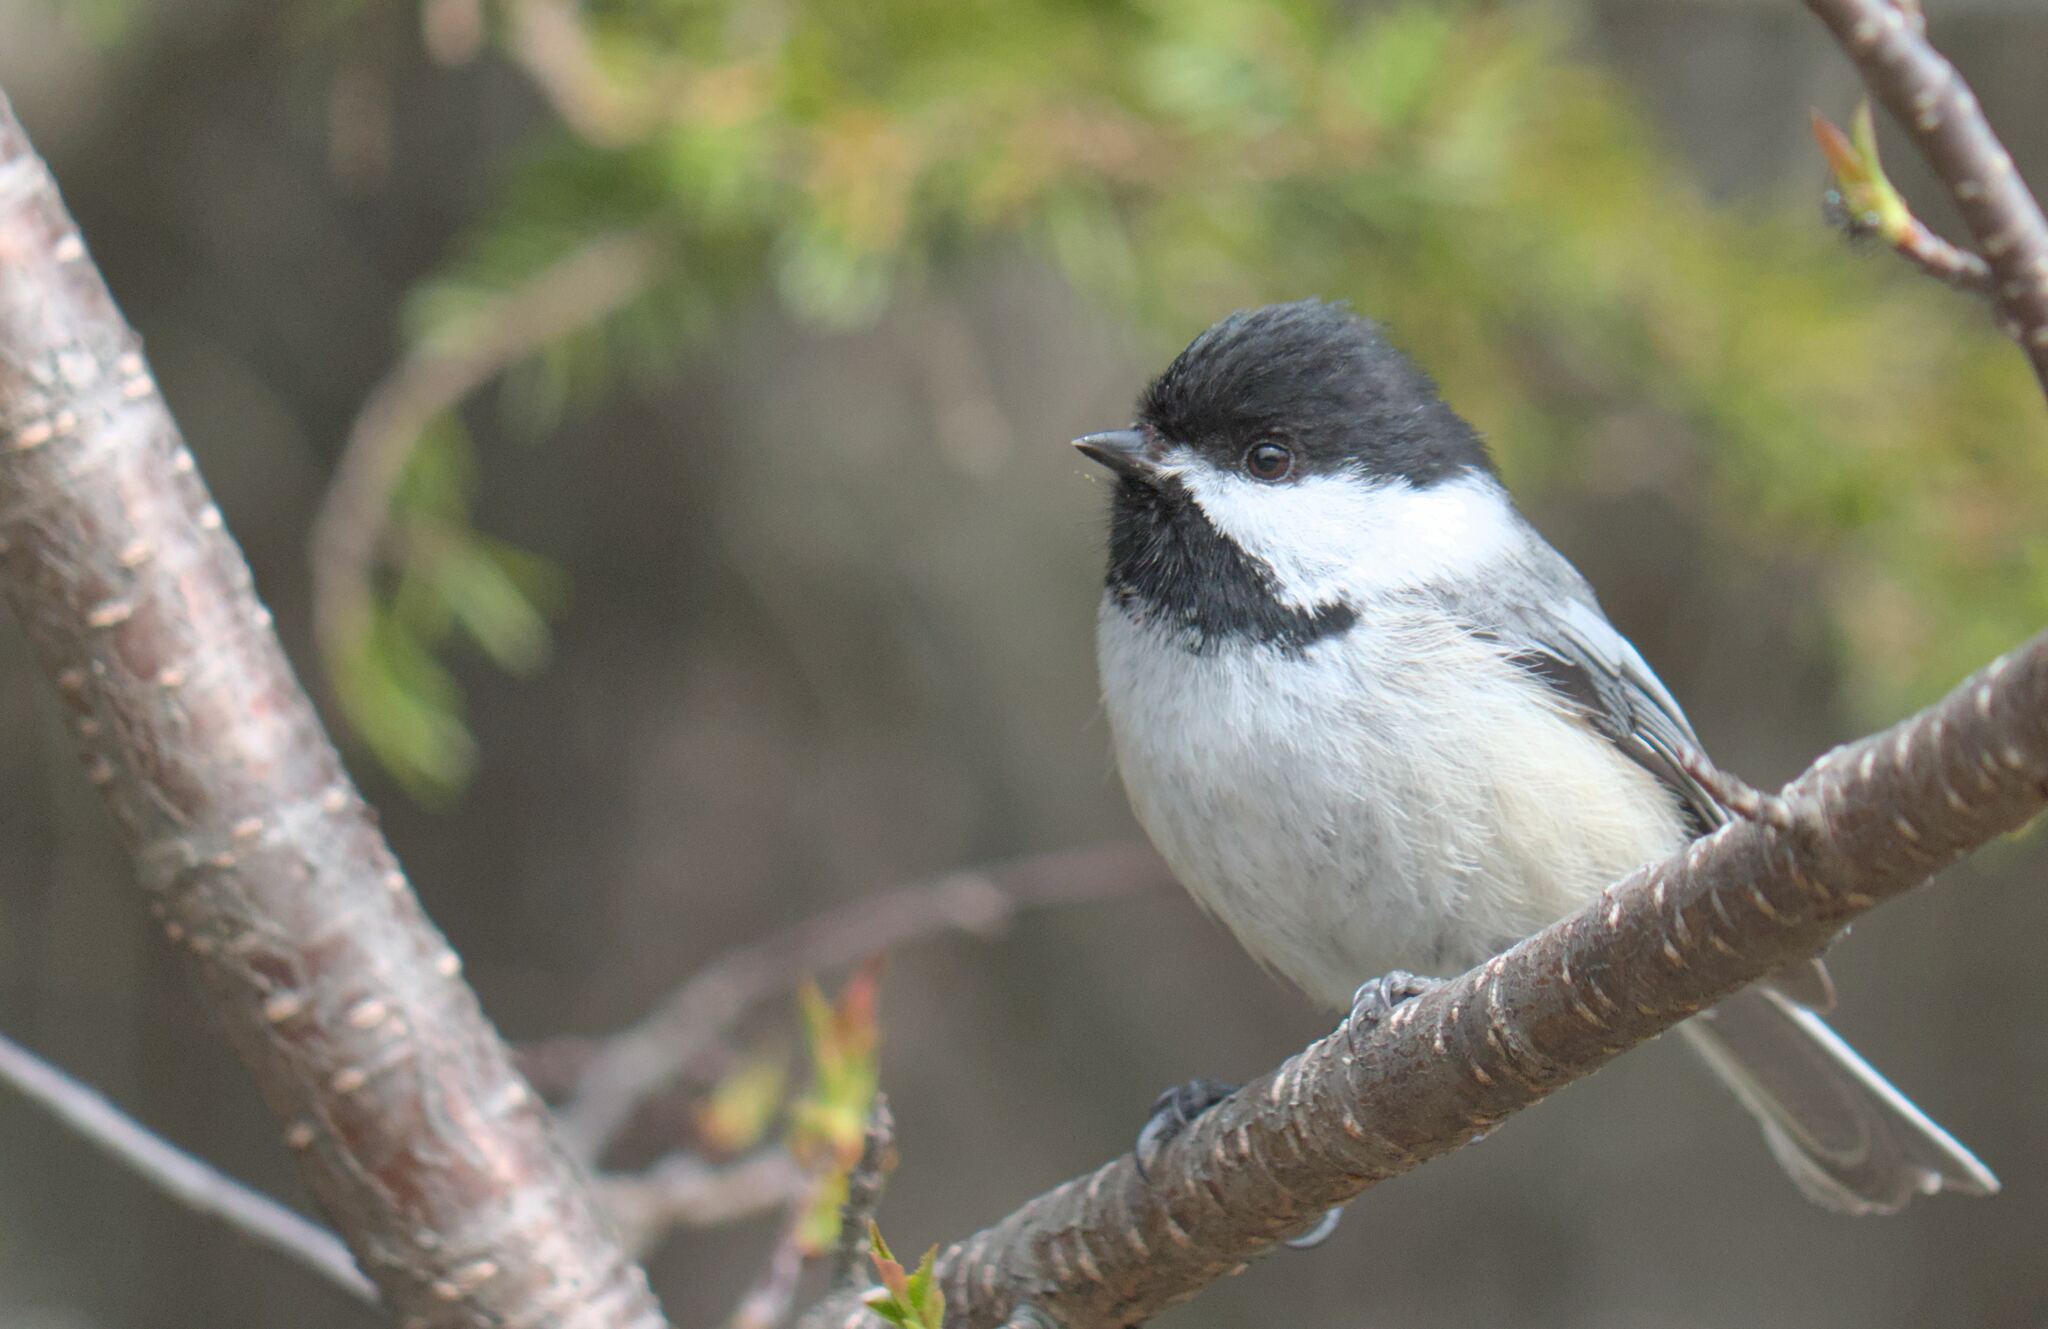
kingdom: Animalia
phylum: Chordata
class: Aves
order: Passeriformes
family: Paridae
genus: Poecile
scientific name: Poecile atricapillus
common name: Black-capped chickadee
